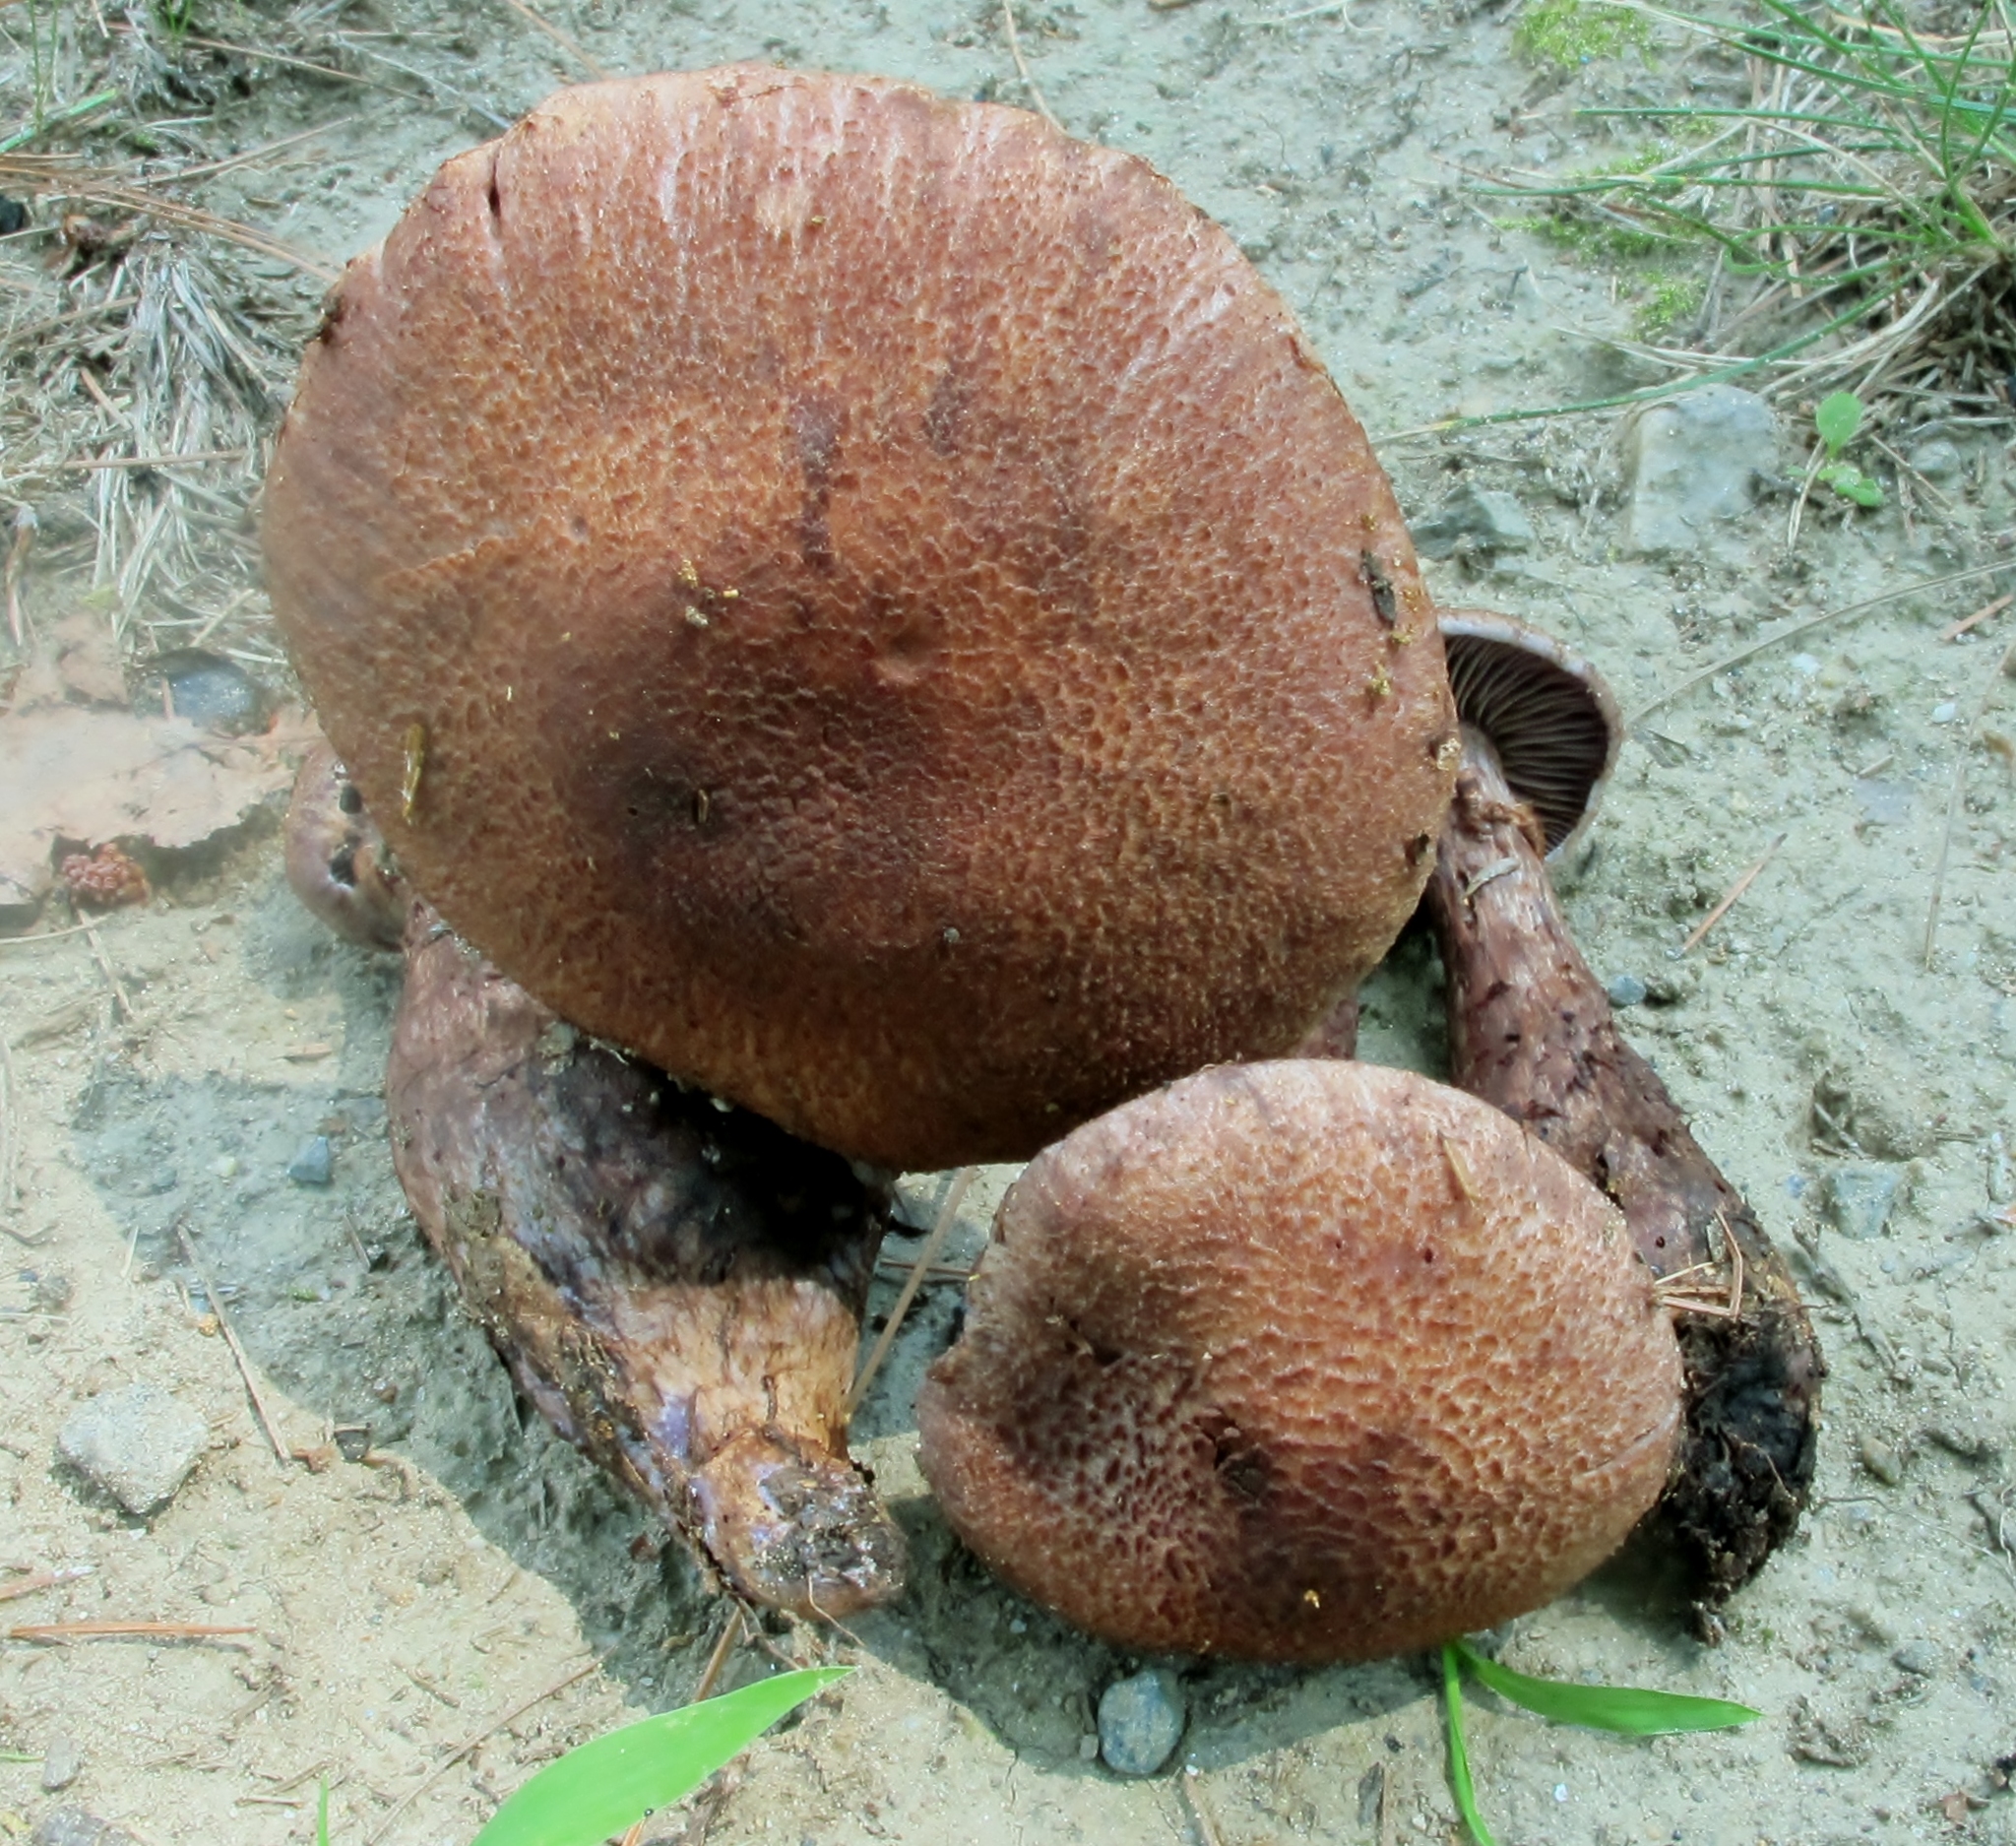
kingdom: Fungi
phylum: Basidiomycota
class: Agaricomycetes
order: Agaricales
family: Cortinariaceae
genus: Cortinarius
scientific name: Cortinarius squamulosus
